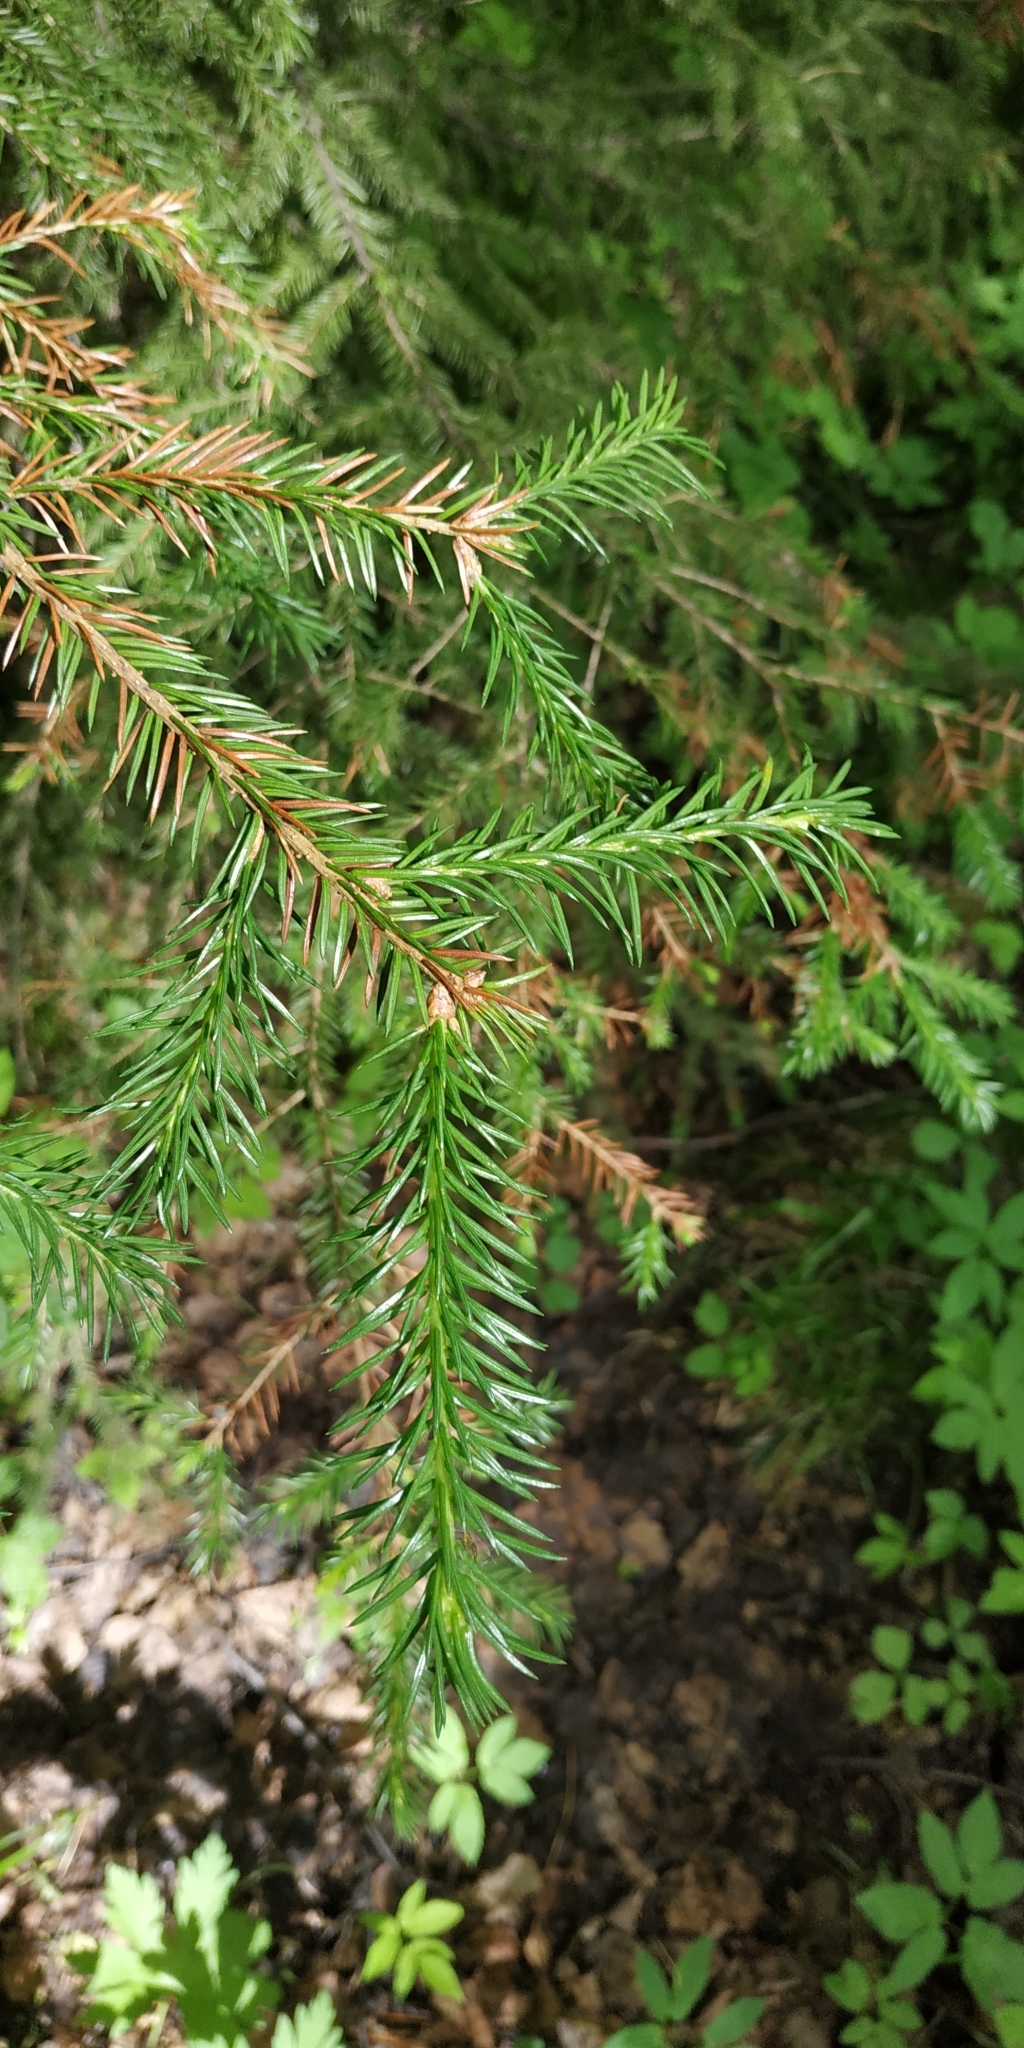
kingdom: Plantae
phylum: Tracheophyta
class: Pinopsida
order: Pinales
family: Pinaceae
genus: Picea
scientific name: Picea obovata
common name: Siberian spruce
